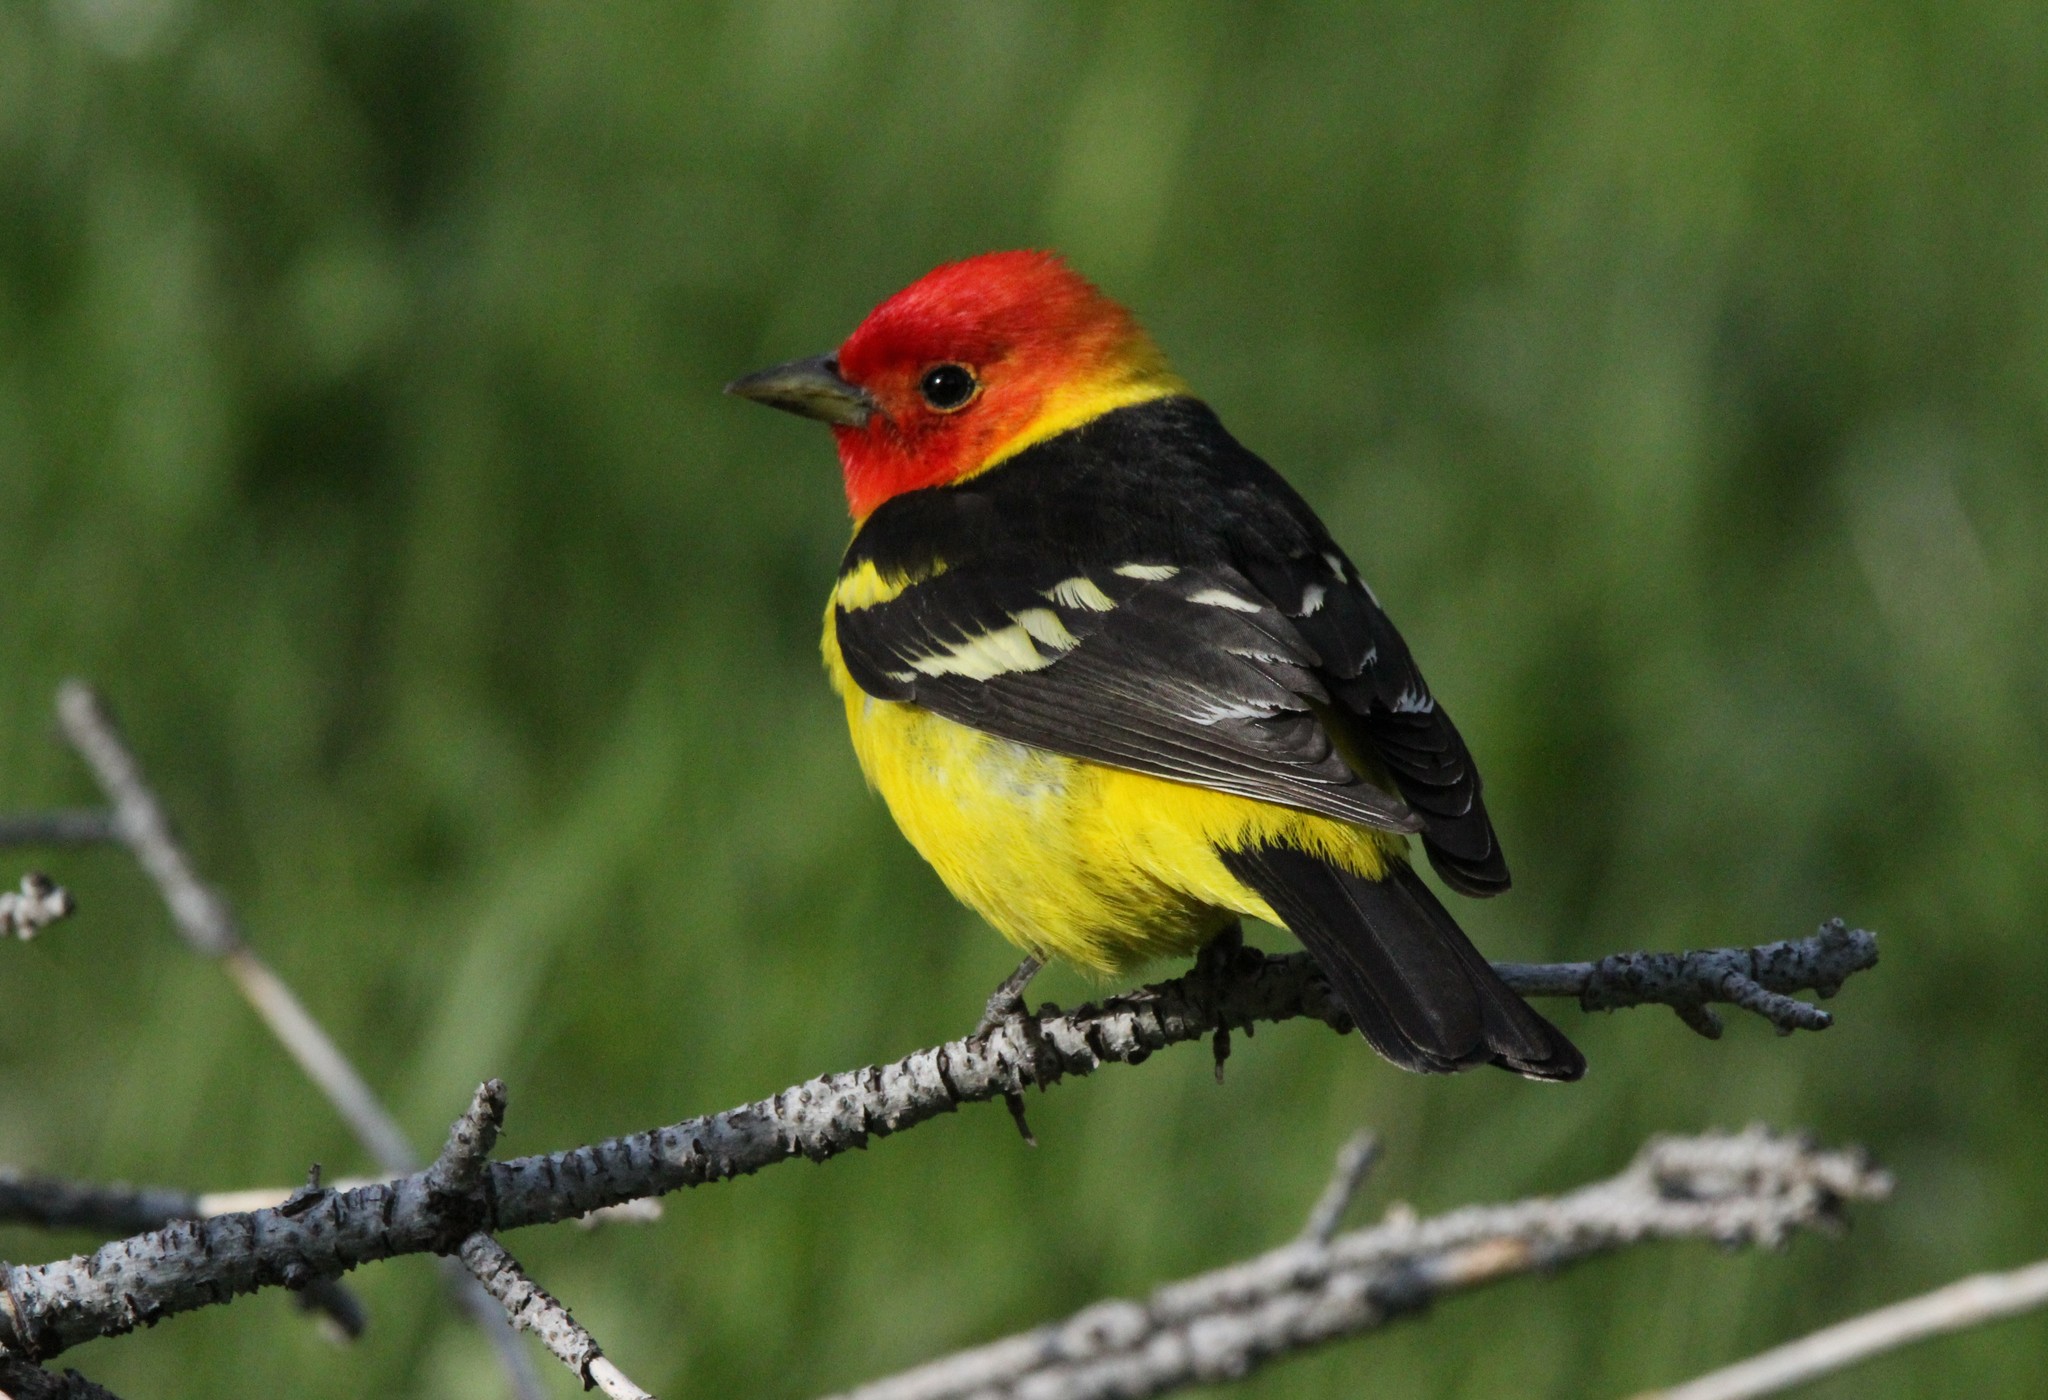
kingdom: Animalia
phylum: Chordata
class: Aves
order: Passeriformes
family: Cardinalidae
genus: Piranga
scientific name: Piranga ludoviciana
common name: Western tanager
